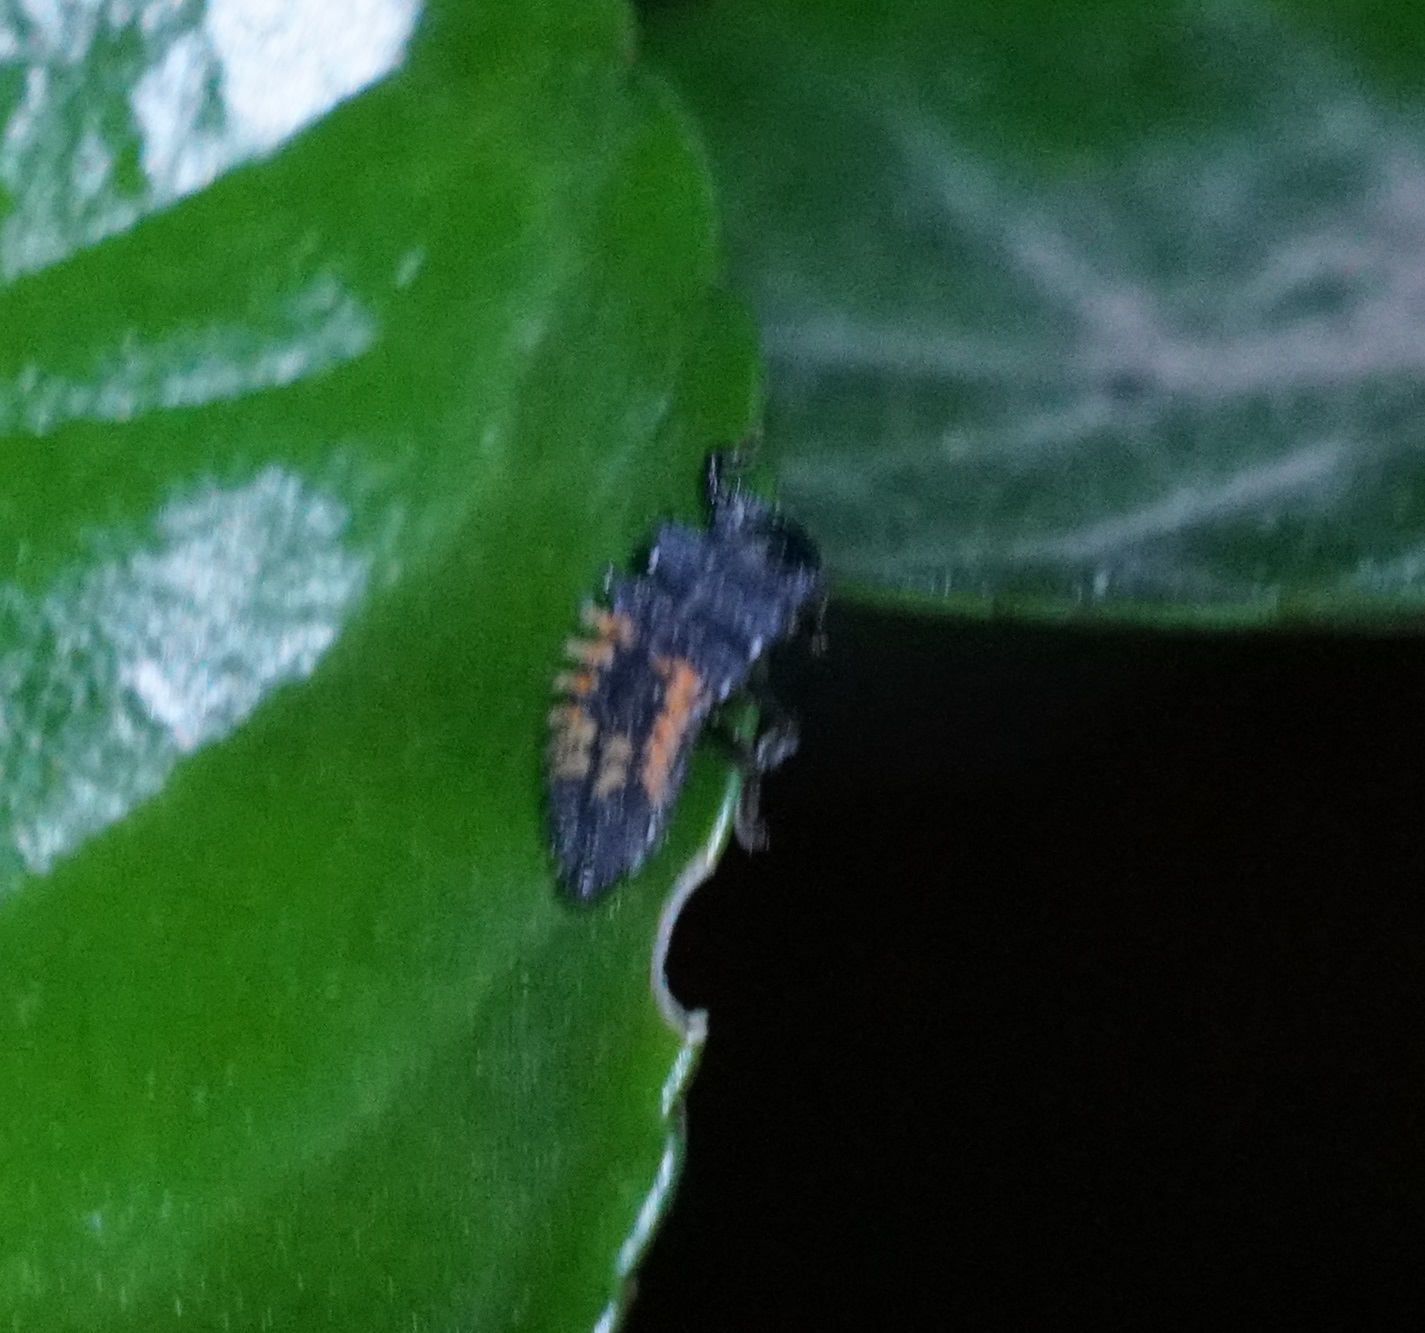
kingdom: Animalia
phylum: Arthropoda
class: Insecta
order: Coleoptera
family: Coccinellidae
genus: Harmonia
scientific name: Harmonia axyridis
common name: Harlequin ladybird
